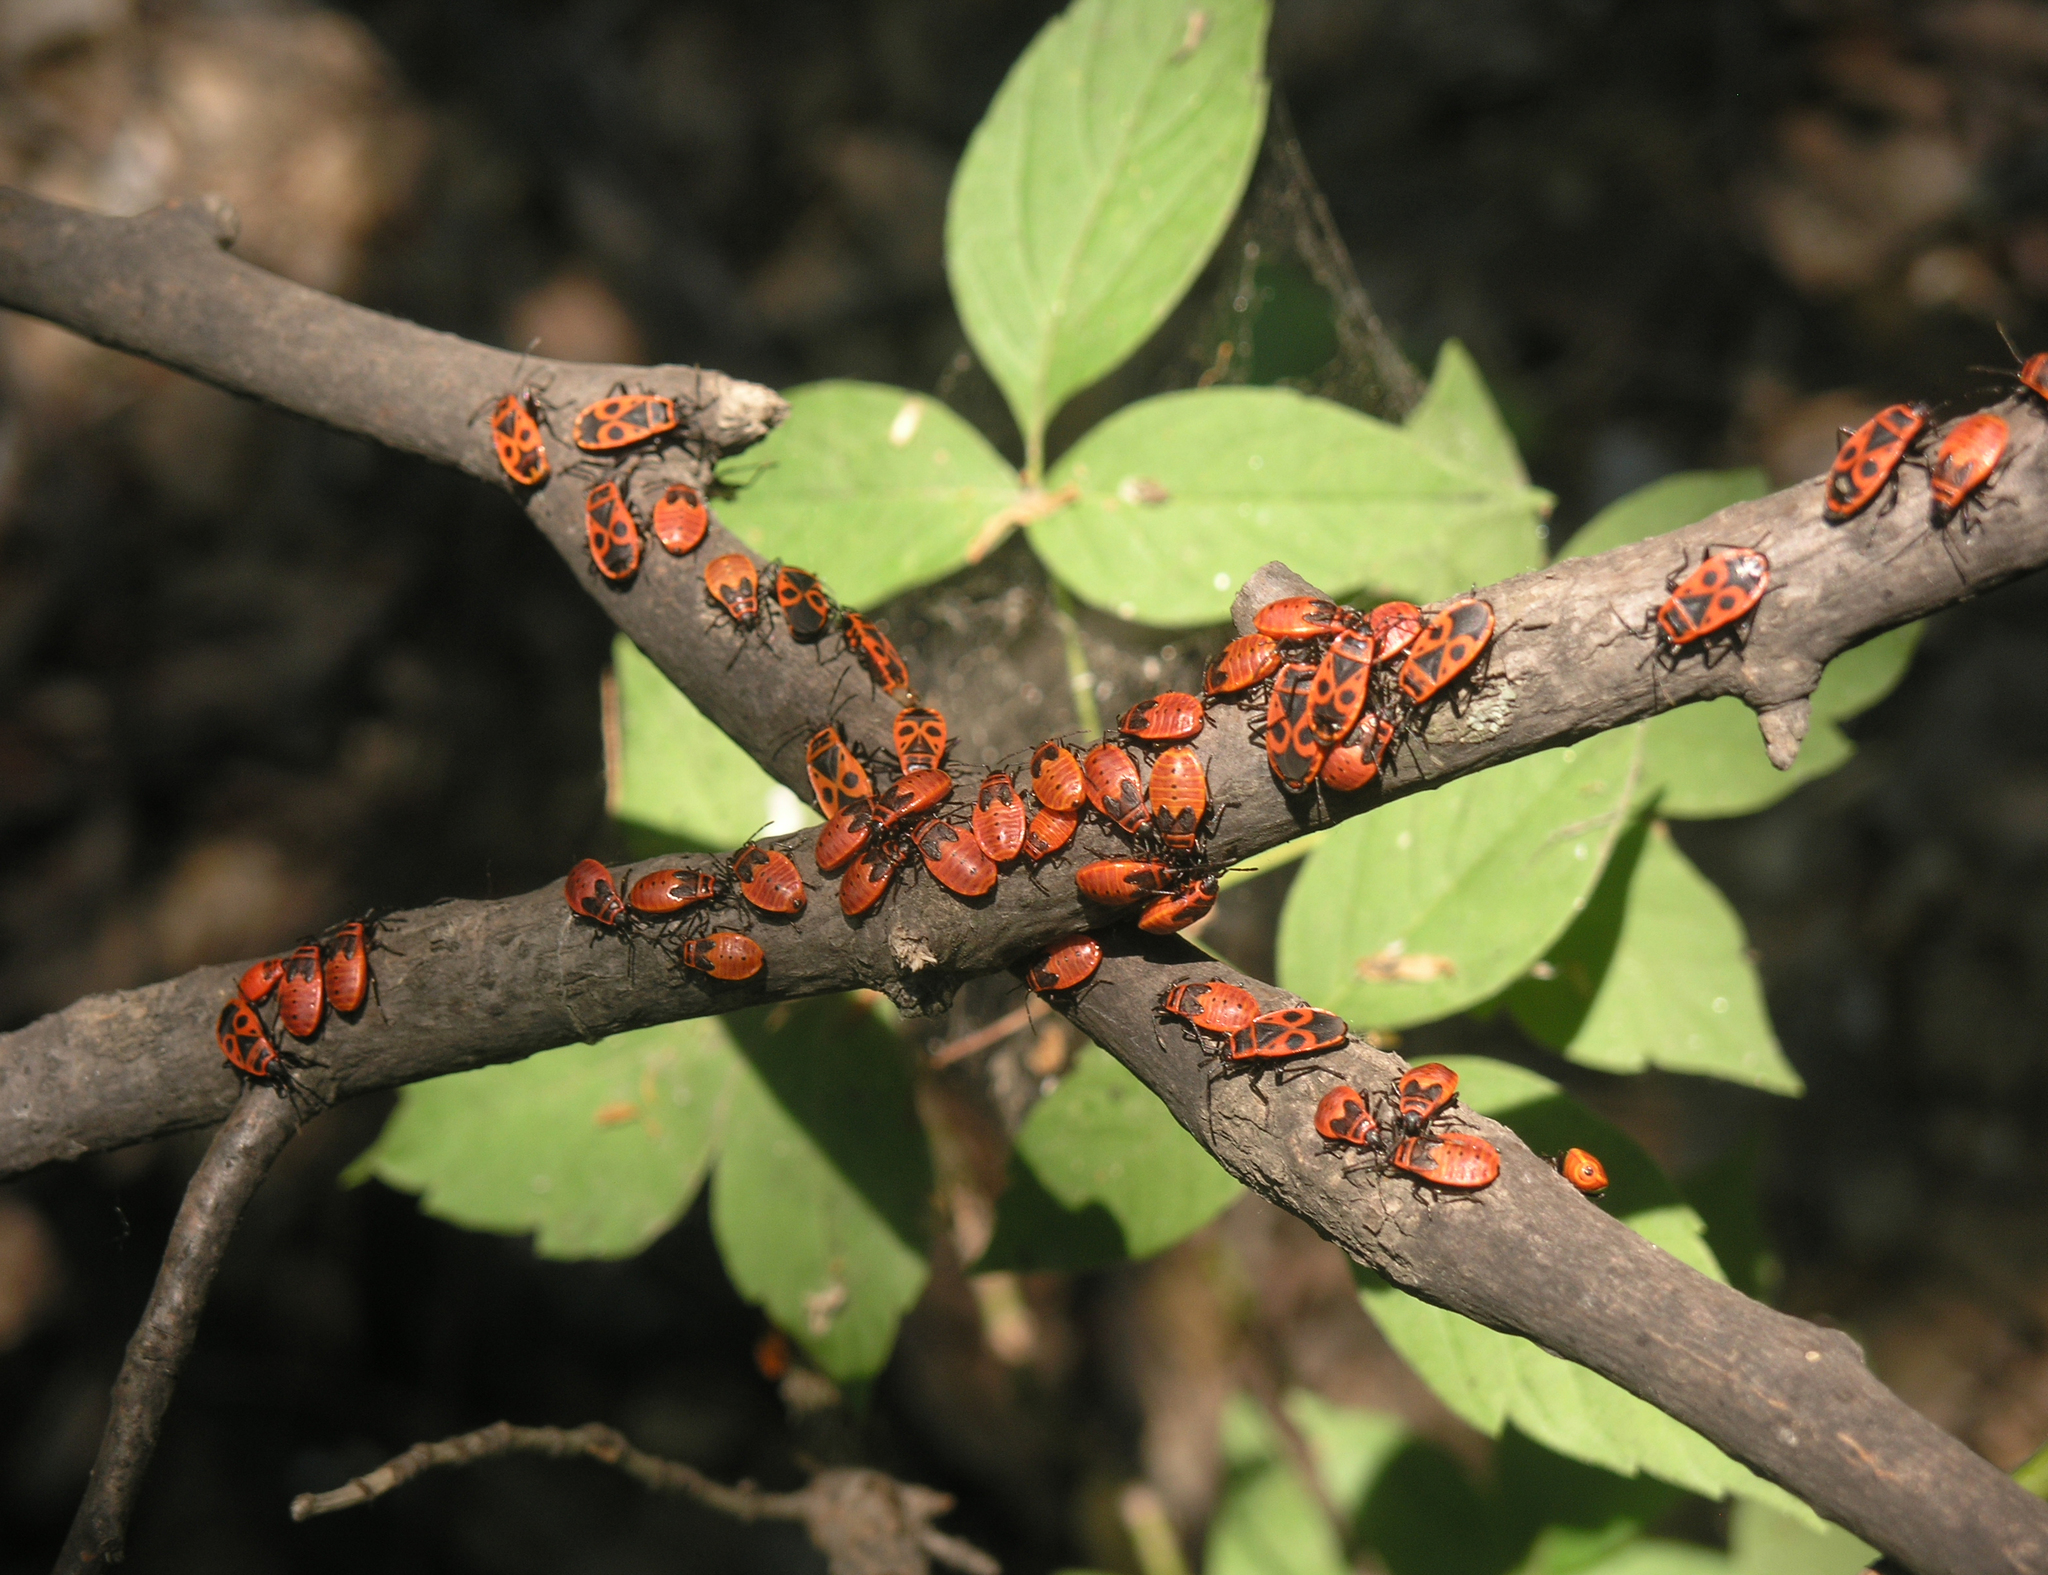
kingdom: Animalia
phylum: Arthropoda
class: Insecta
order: Hemiptera
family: Pyrrhocoridae
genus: Pyrrhocoris
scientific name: Pyrrhocoris apterus
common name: Firebug
